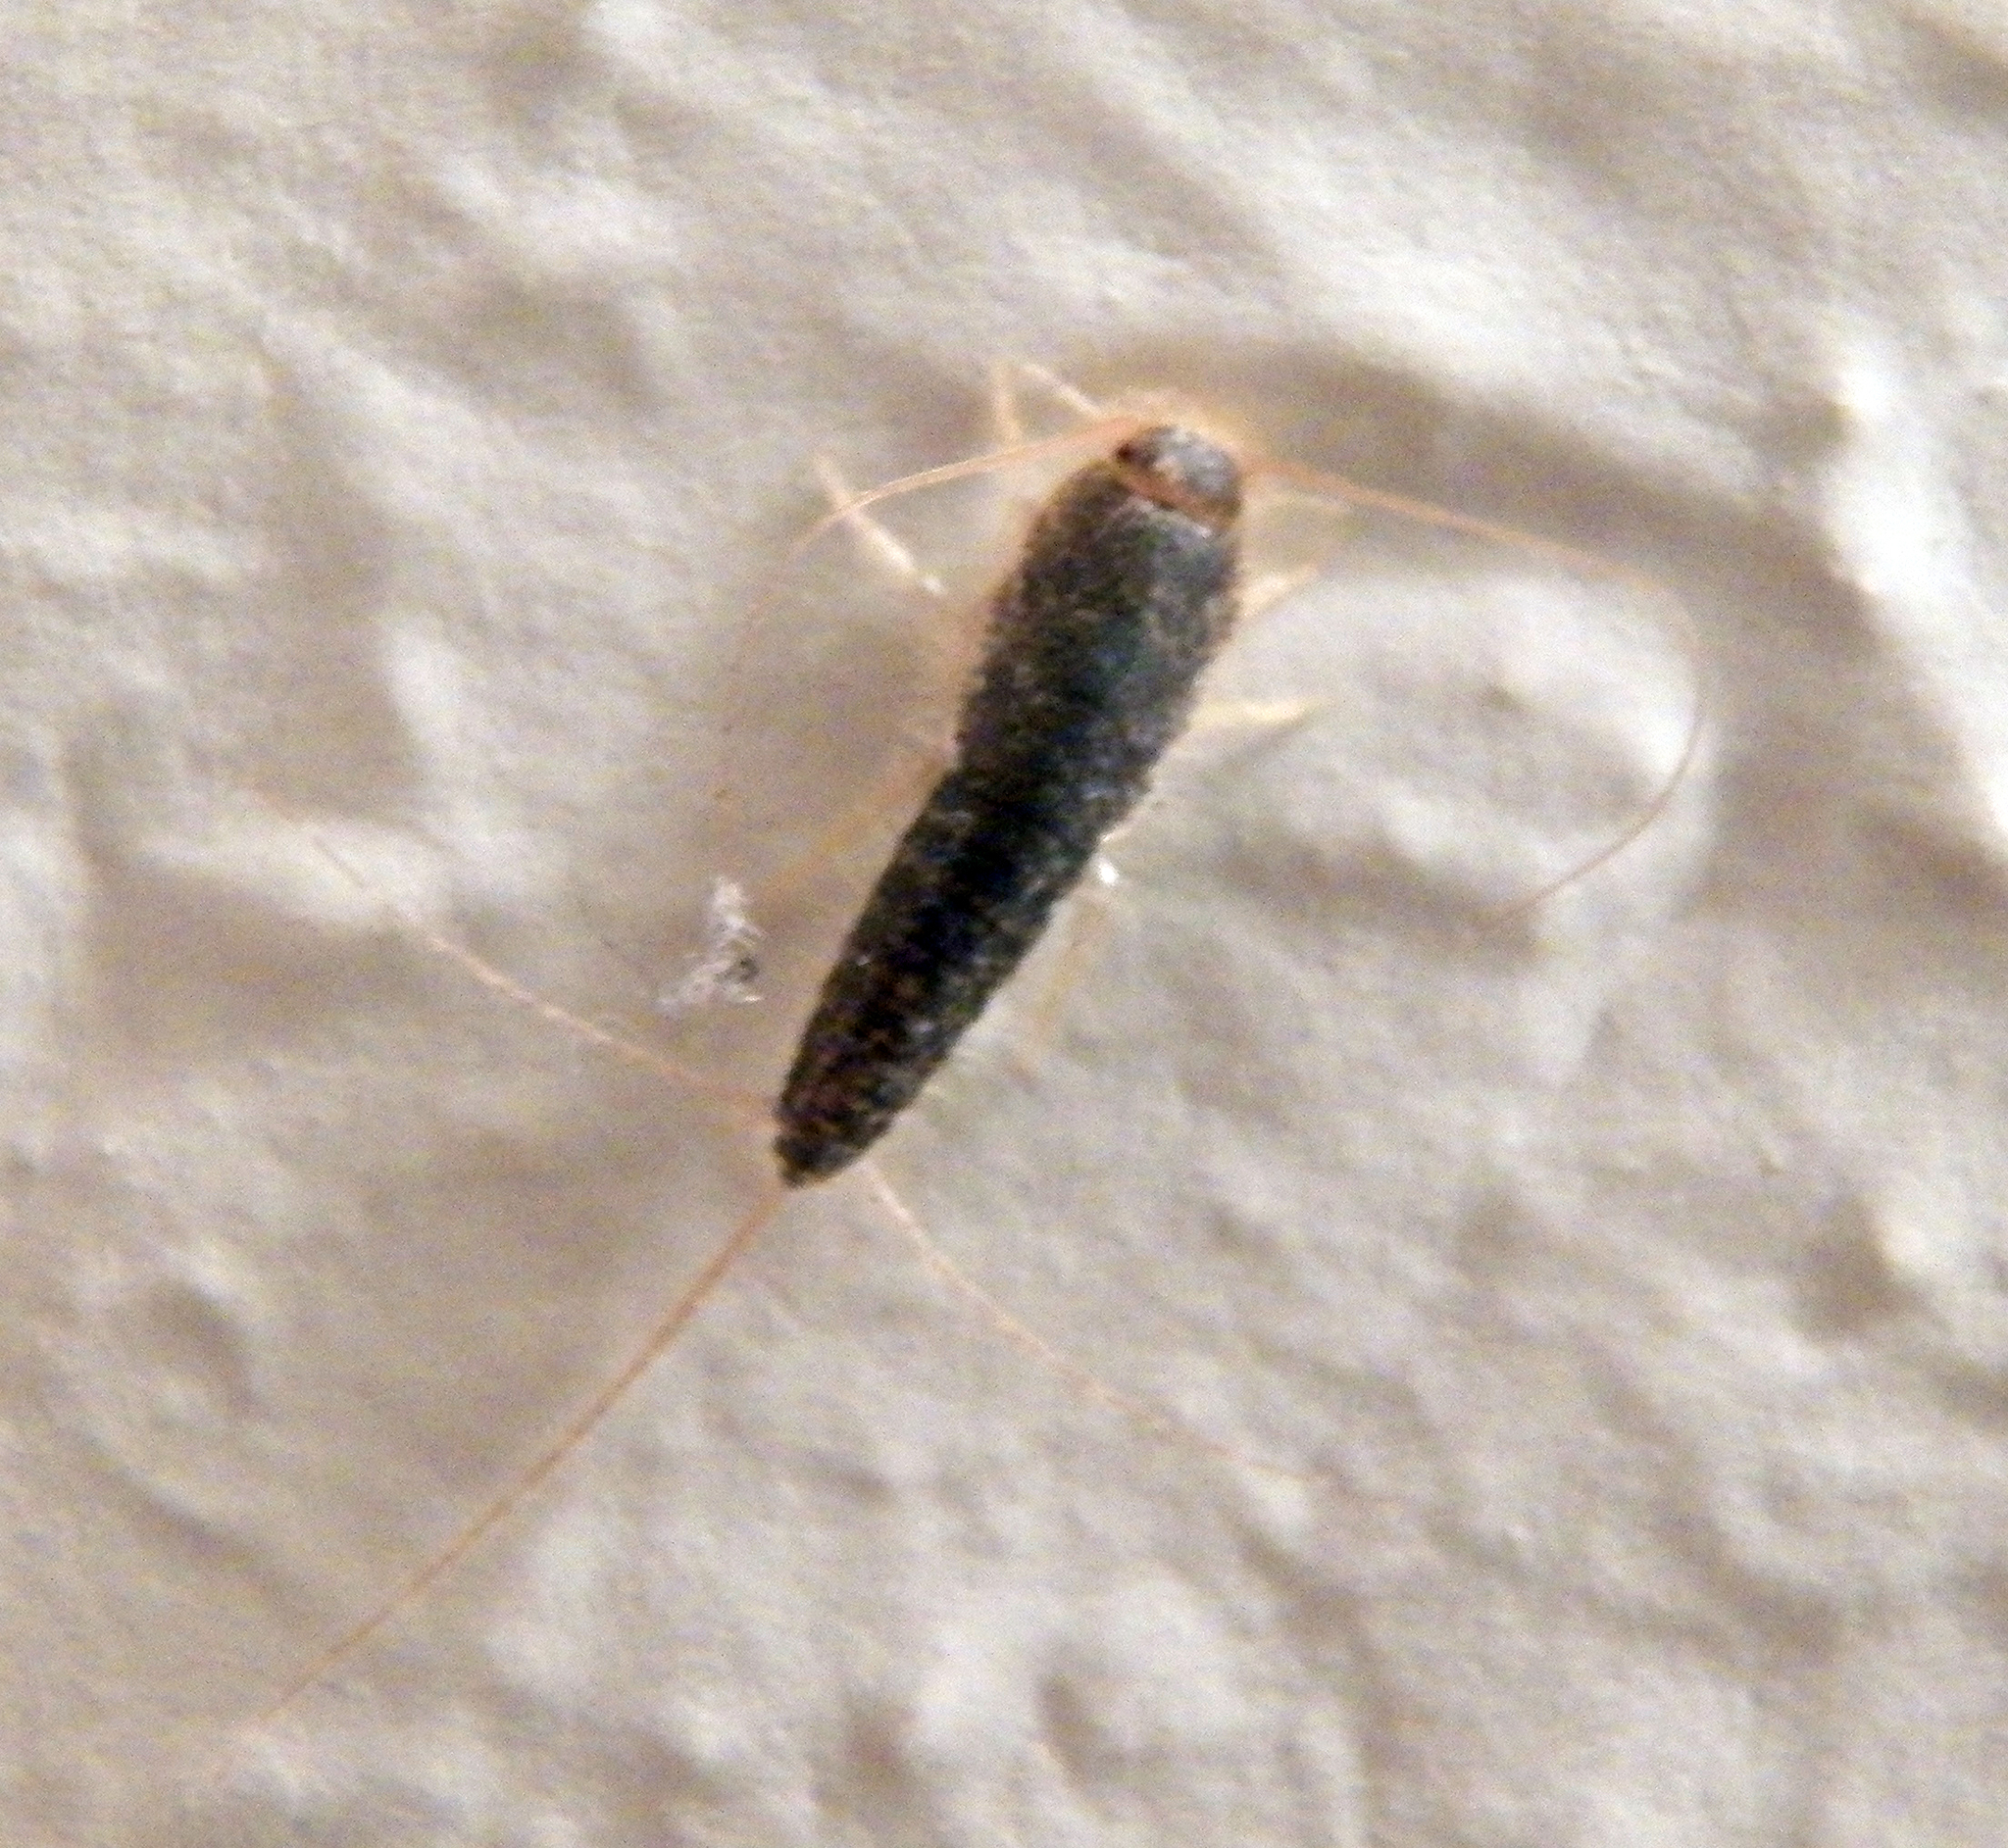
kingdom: Animalia
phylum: Arthropoda
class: Insecta
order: Zygentoma
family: Lepismatidae
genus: Ctenolepisma
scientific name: Ctenolepisma longicaudatum
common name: Silverfish
